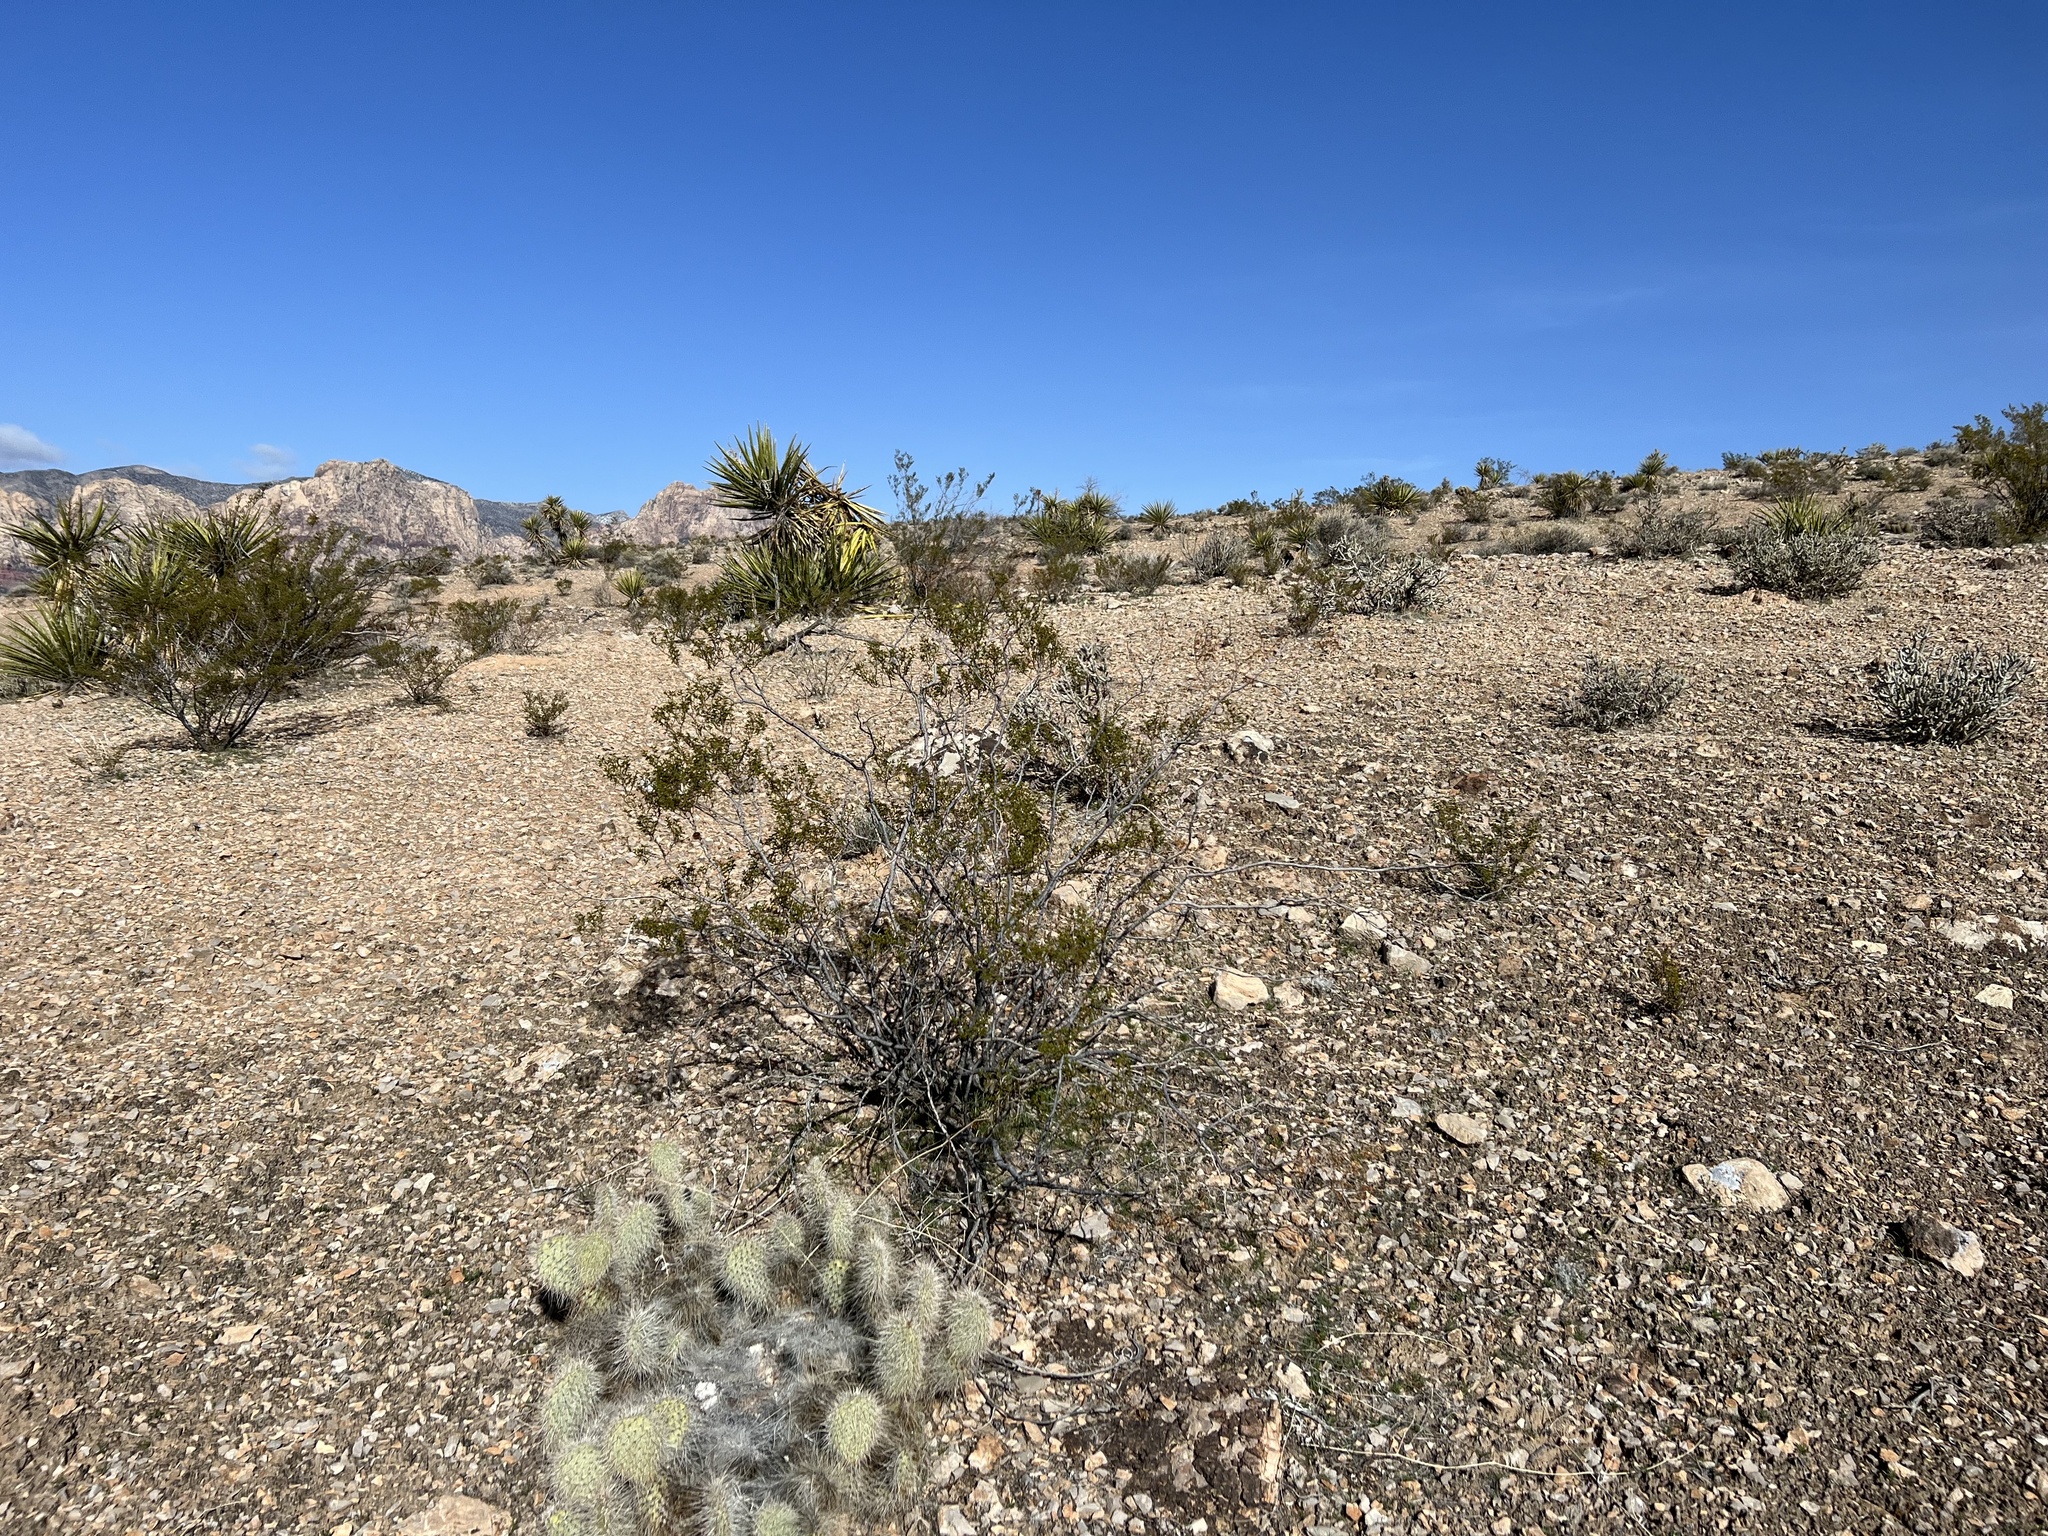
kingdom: Plantae
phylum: Tracheophyta
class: Magnoliopsida
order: Zygophyllales
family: Zygophyllaceae
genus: Larrea
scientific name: Larrea tridentata
